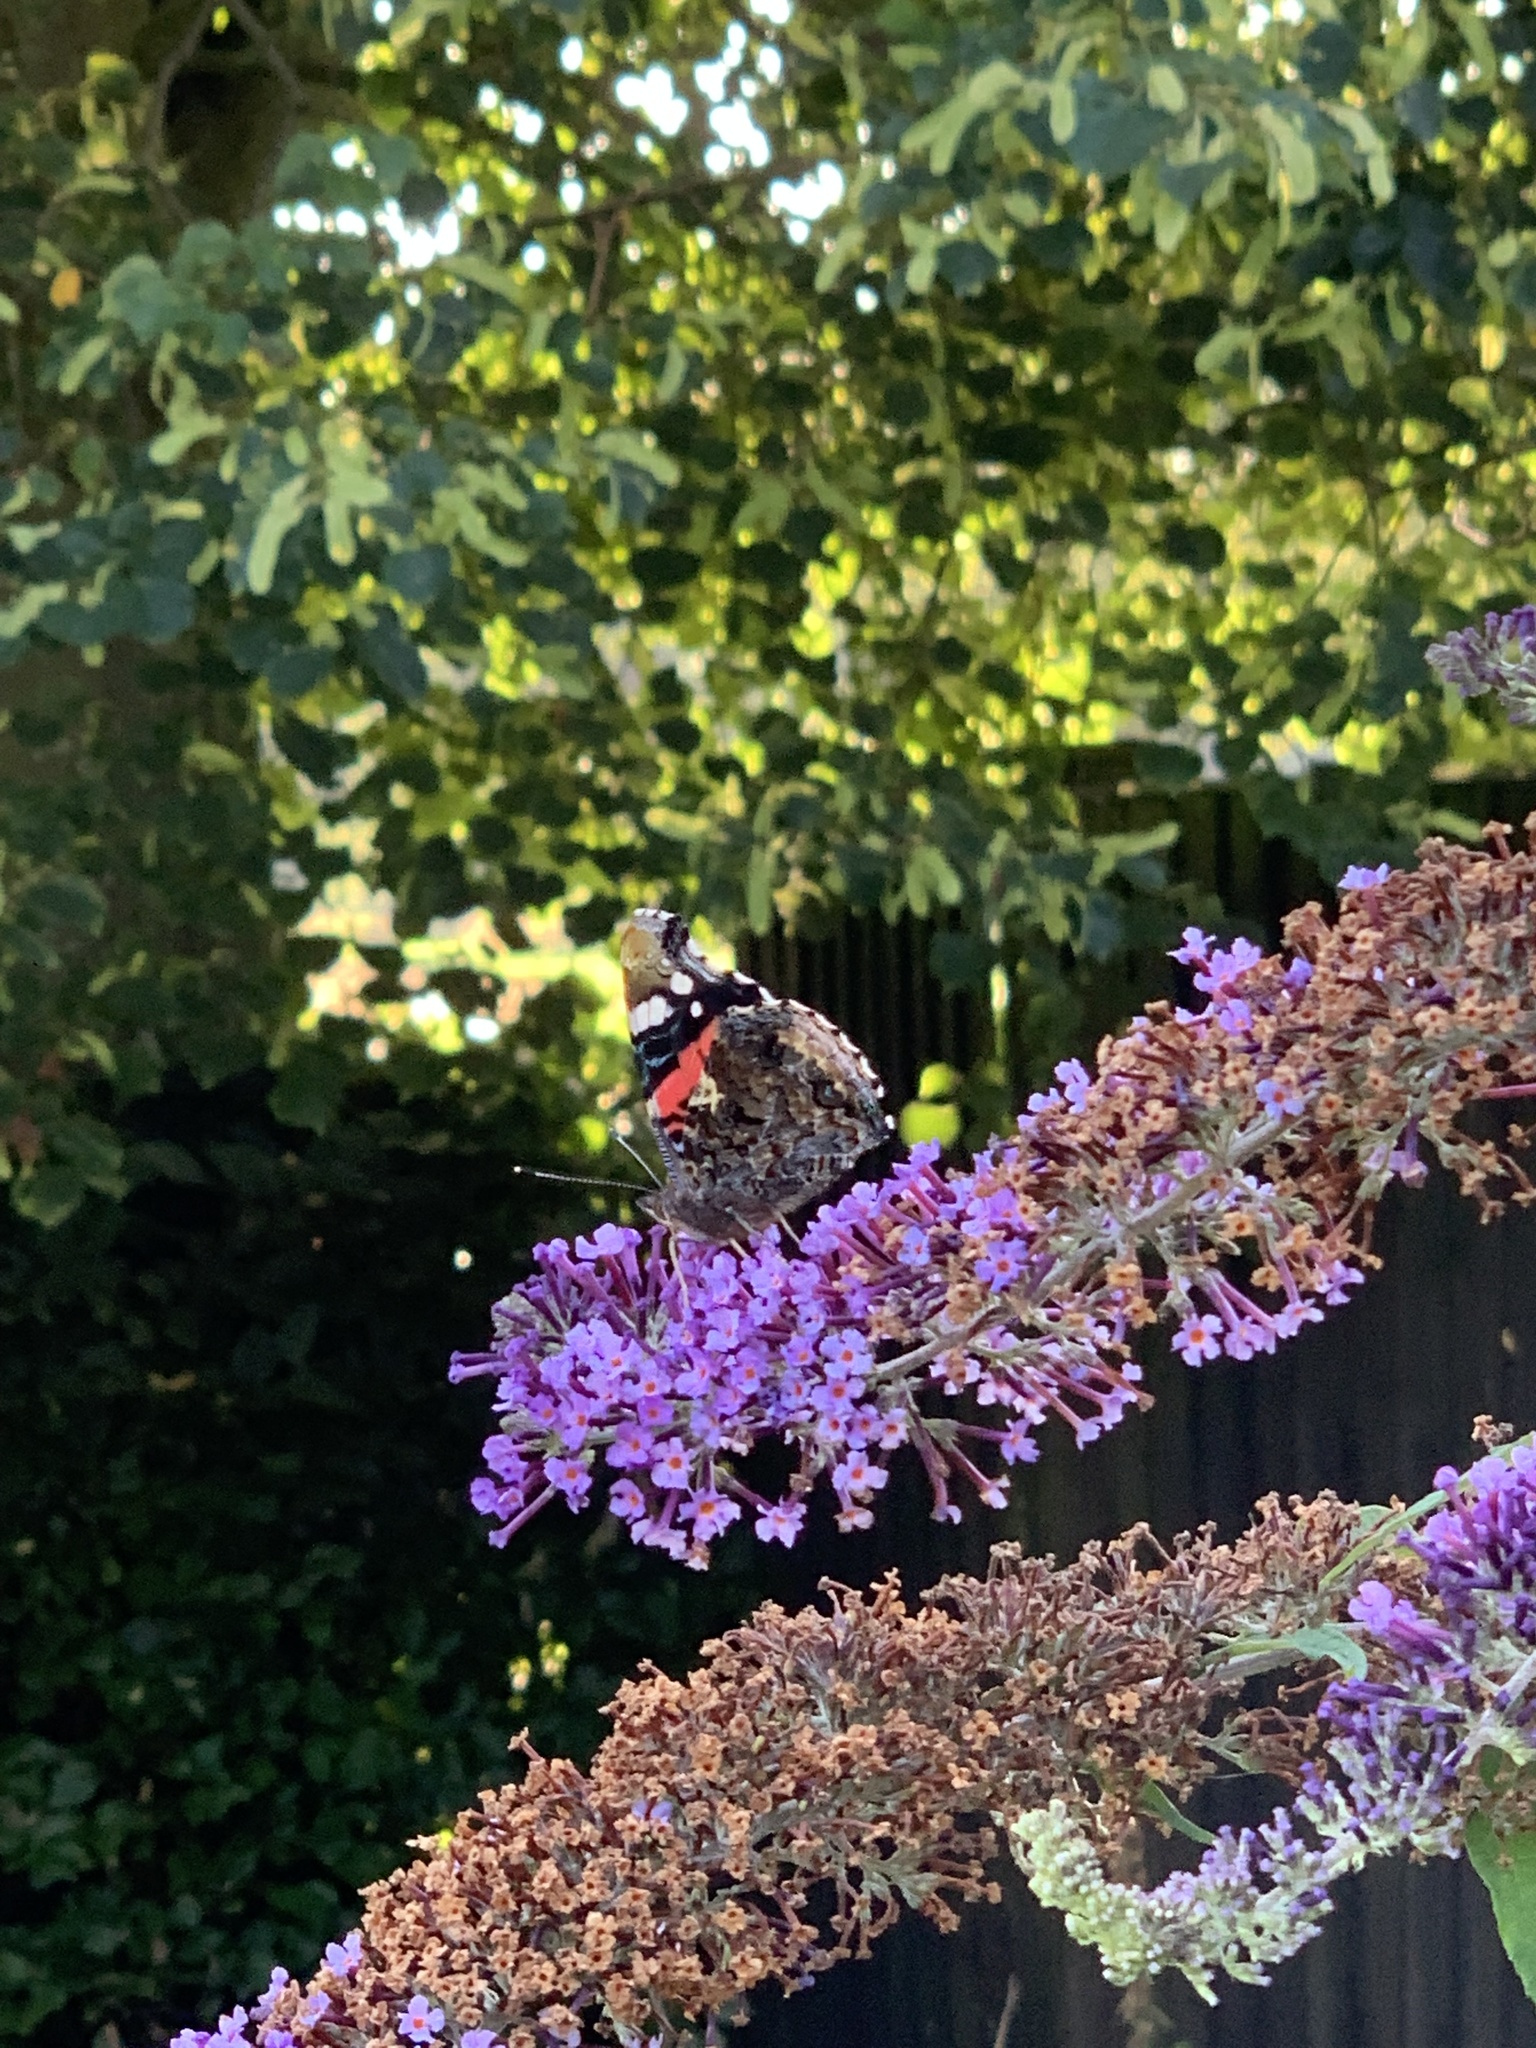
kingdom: Animalia
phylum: Arthropoda
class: Insecta
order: Lepidoptera
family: Nymphalidae
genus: Vanessa
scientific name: Vanessa atalanta
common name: Red admiral
